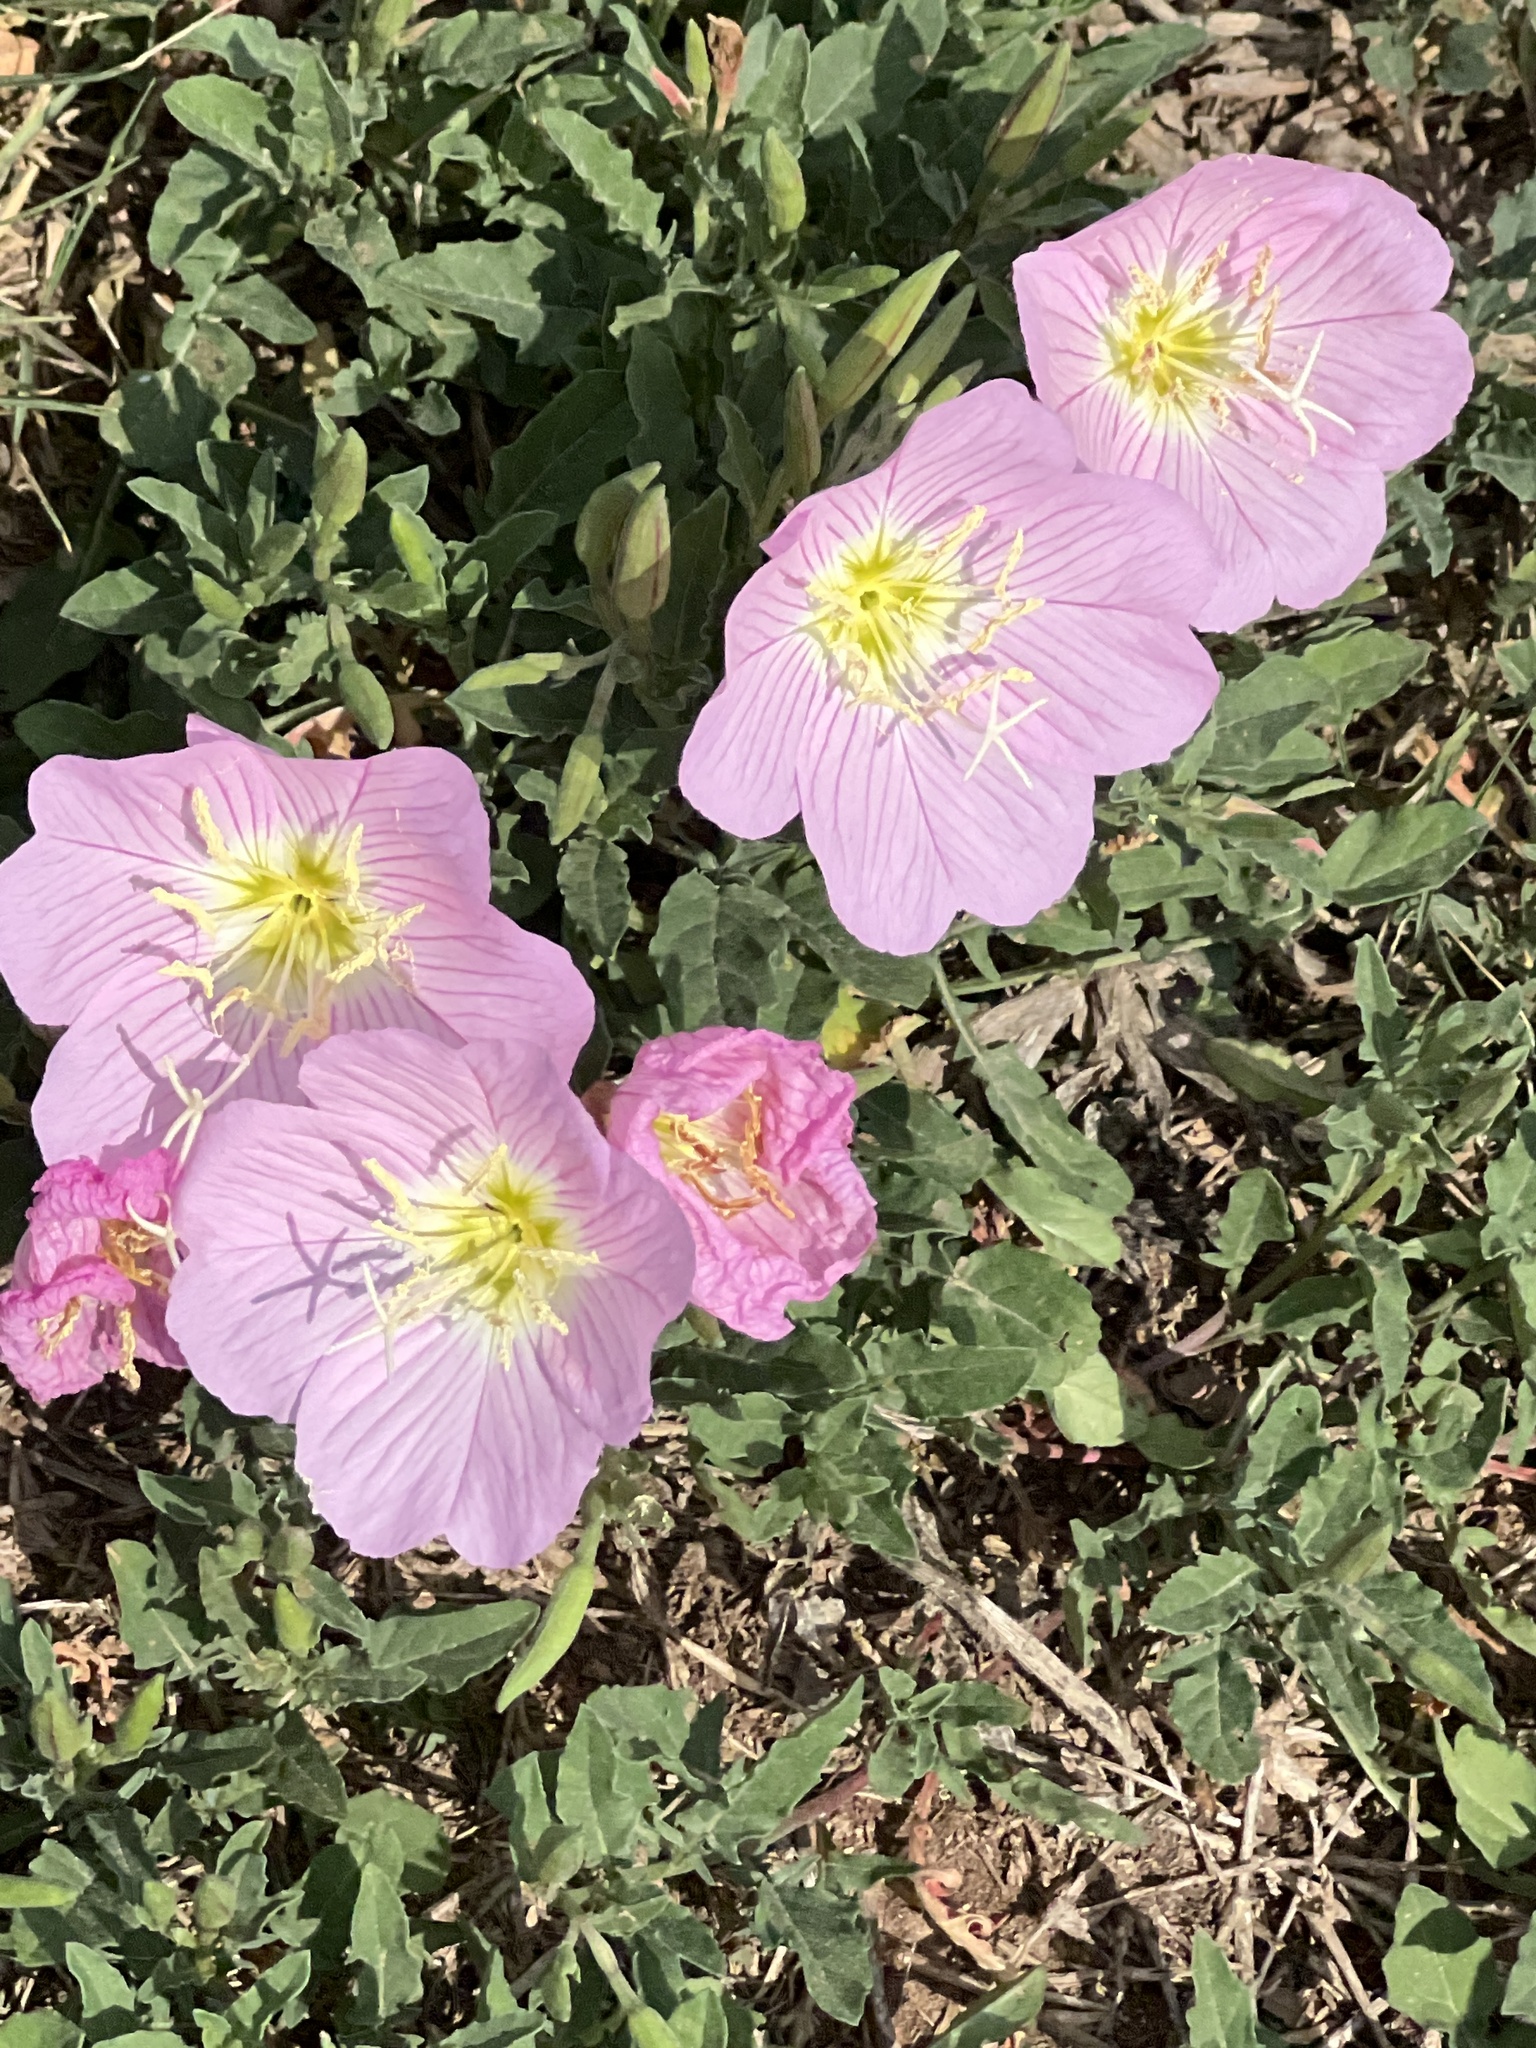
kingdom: Plantae
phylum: Tracheophyta
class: Magnoliopsida
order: Myrtales
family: Onagraceae
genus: Oenothera
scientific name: Oenothera speciosa
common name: White evening-primrose
